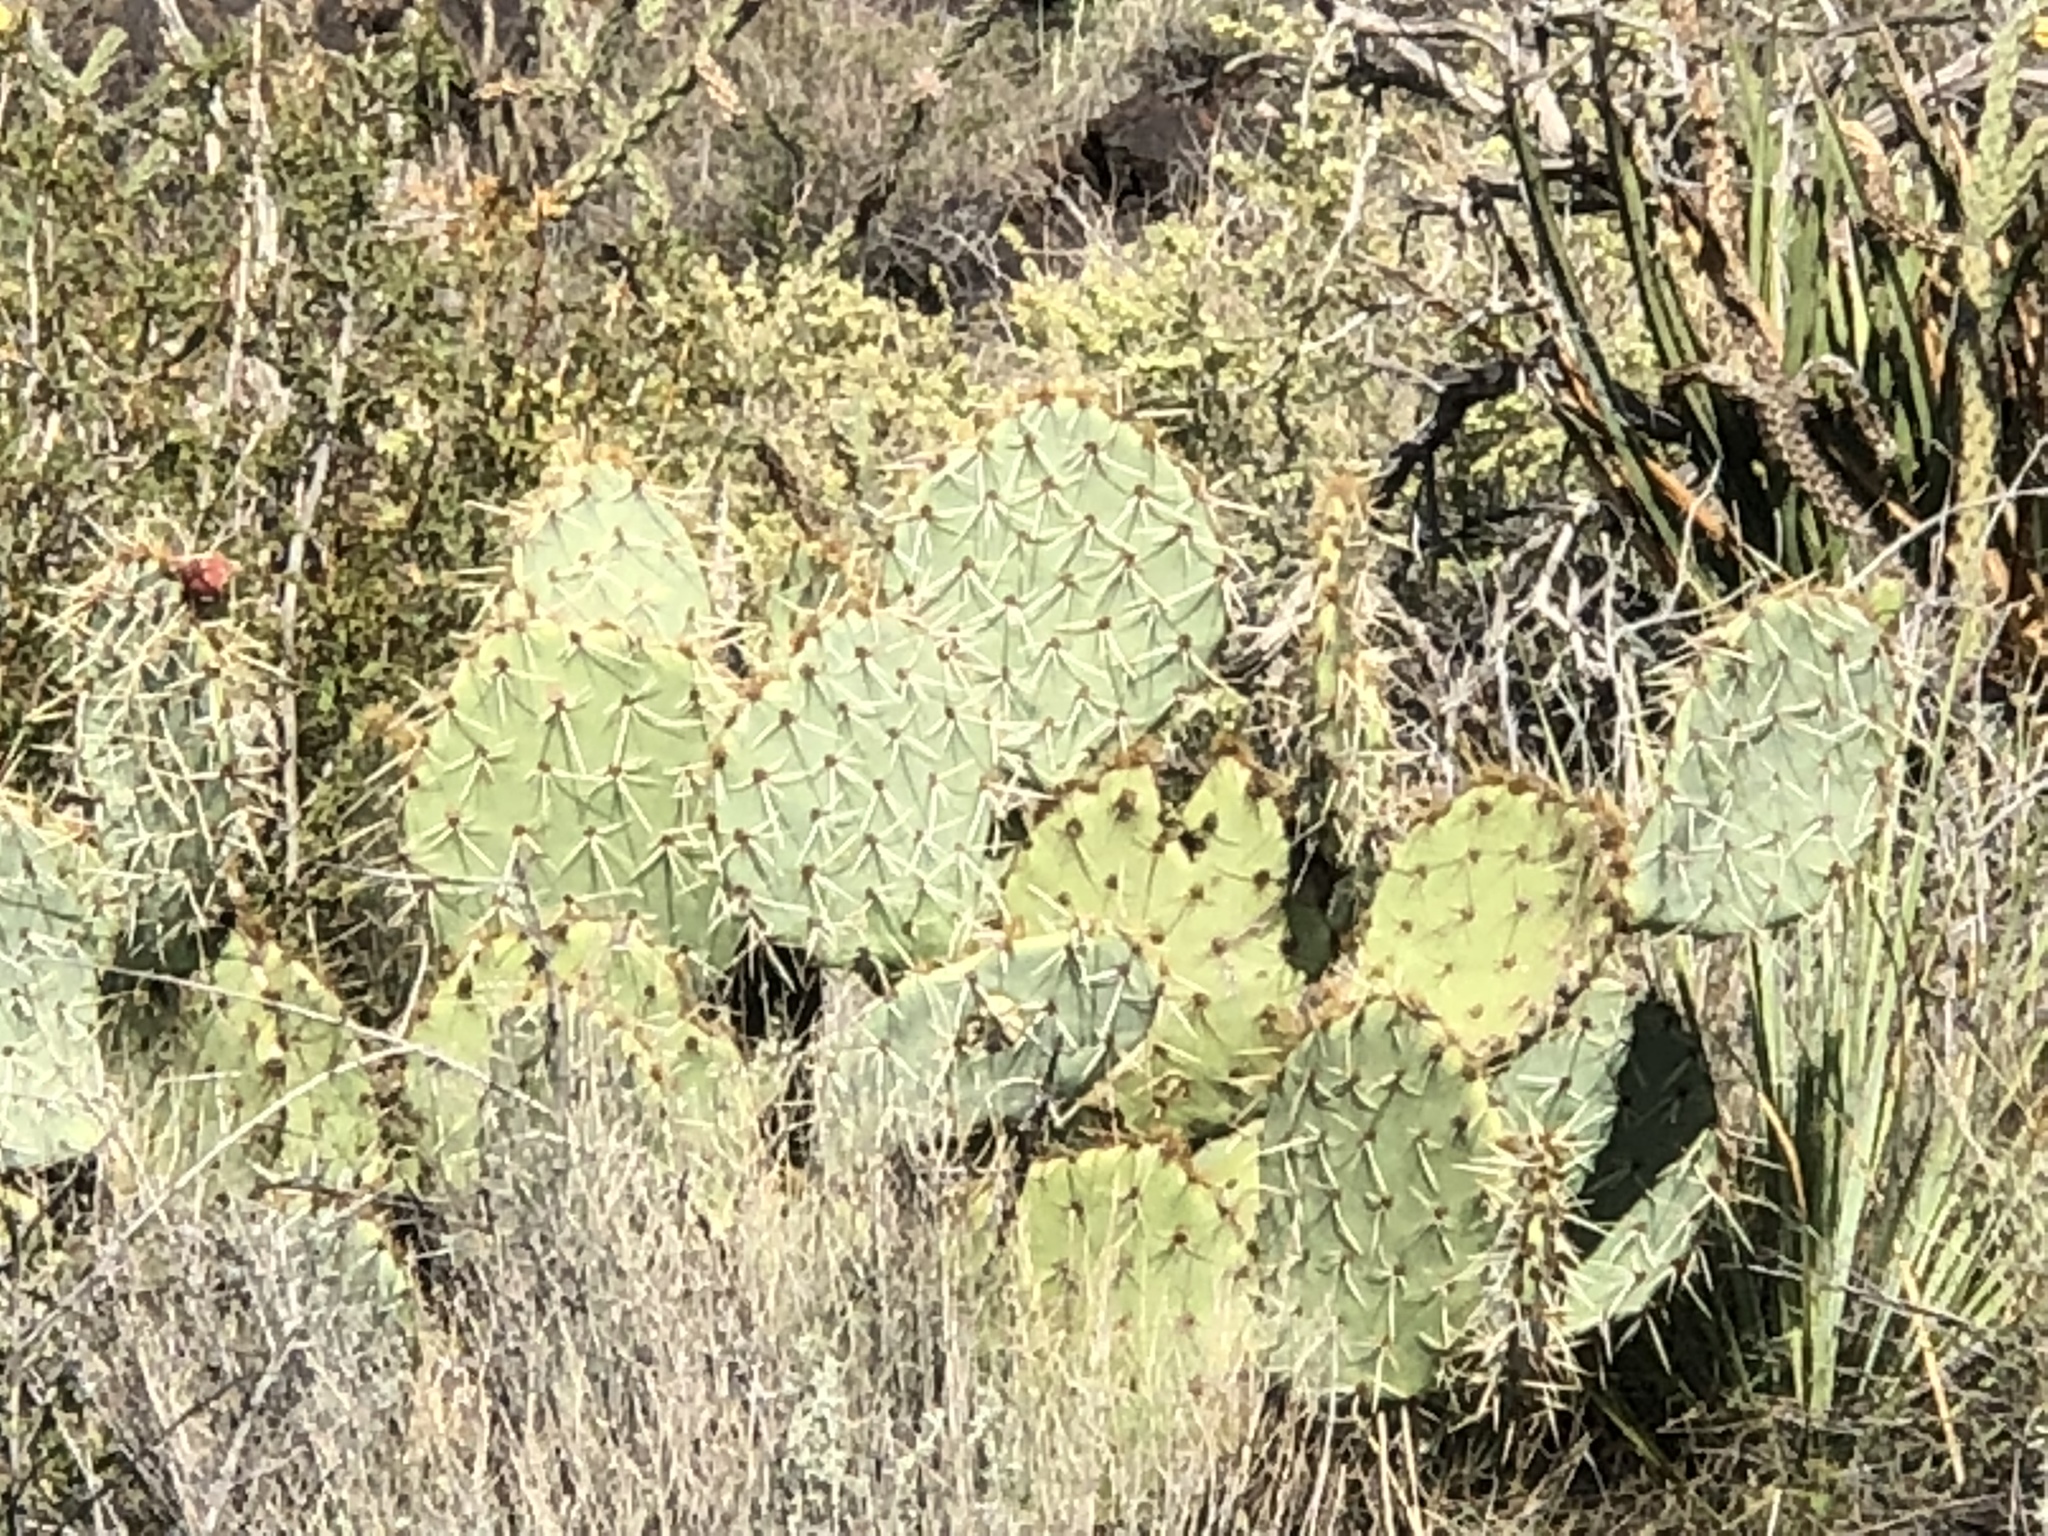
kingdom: Plantae
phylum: Tracheophyta
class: Magnoliopsida
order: Caryophyllales
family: Cactaceae
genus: Opuntia
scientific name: Opuntia phaeacantha
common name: New mexico prickly-pear
